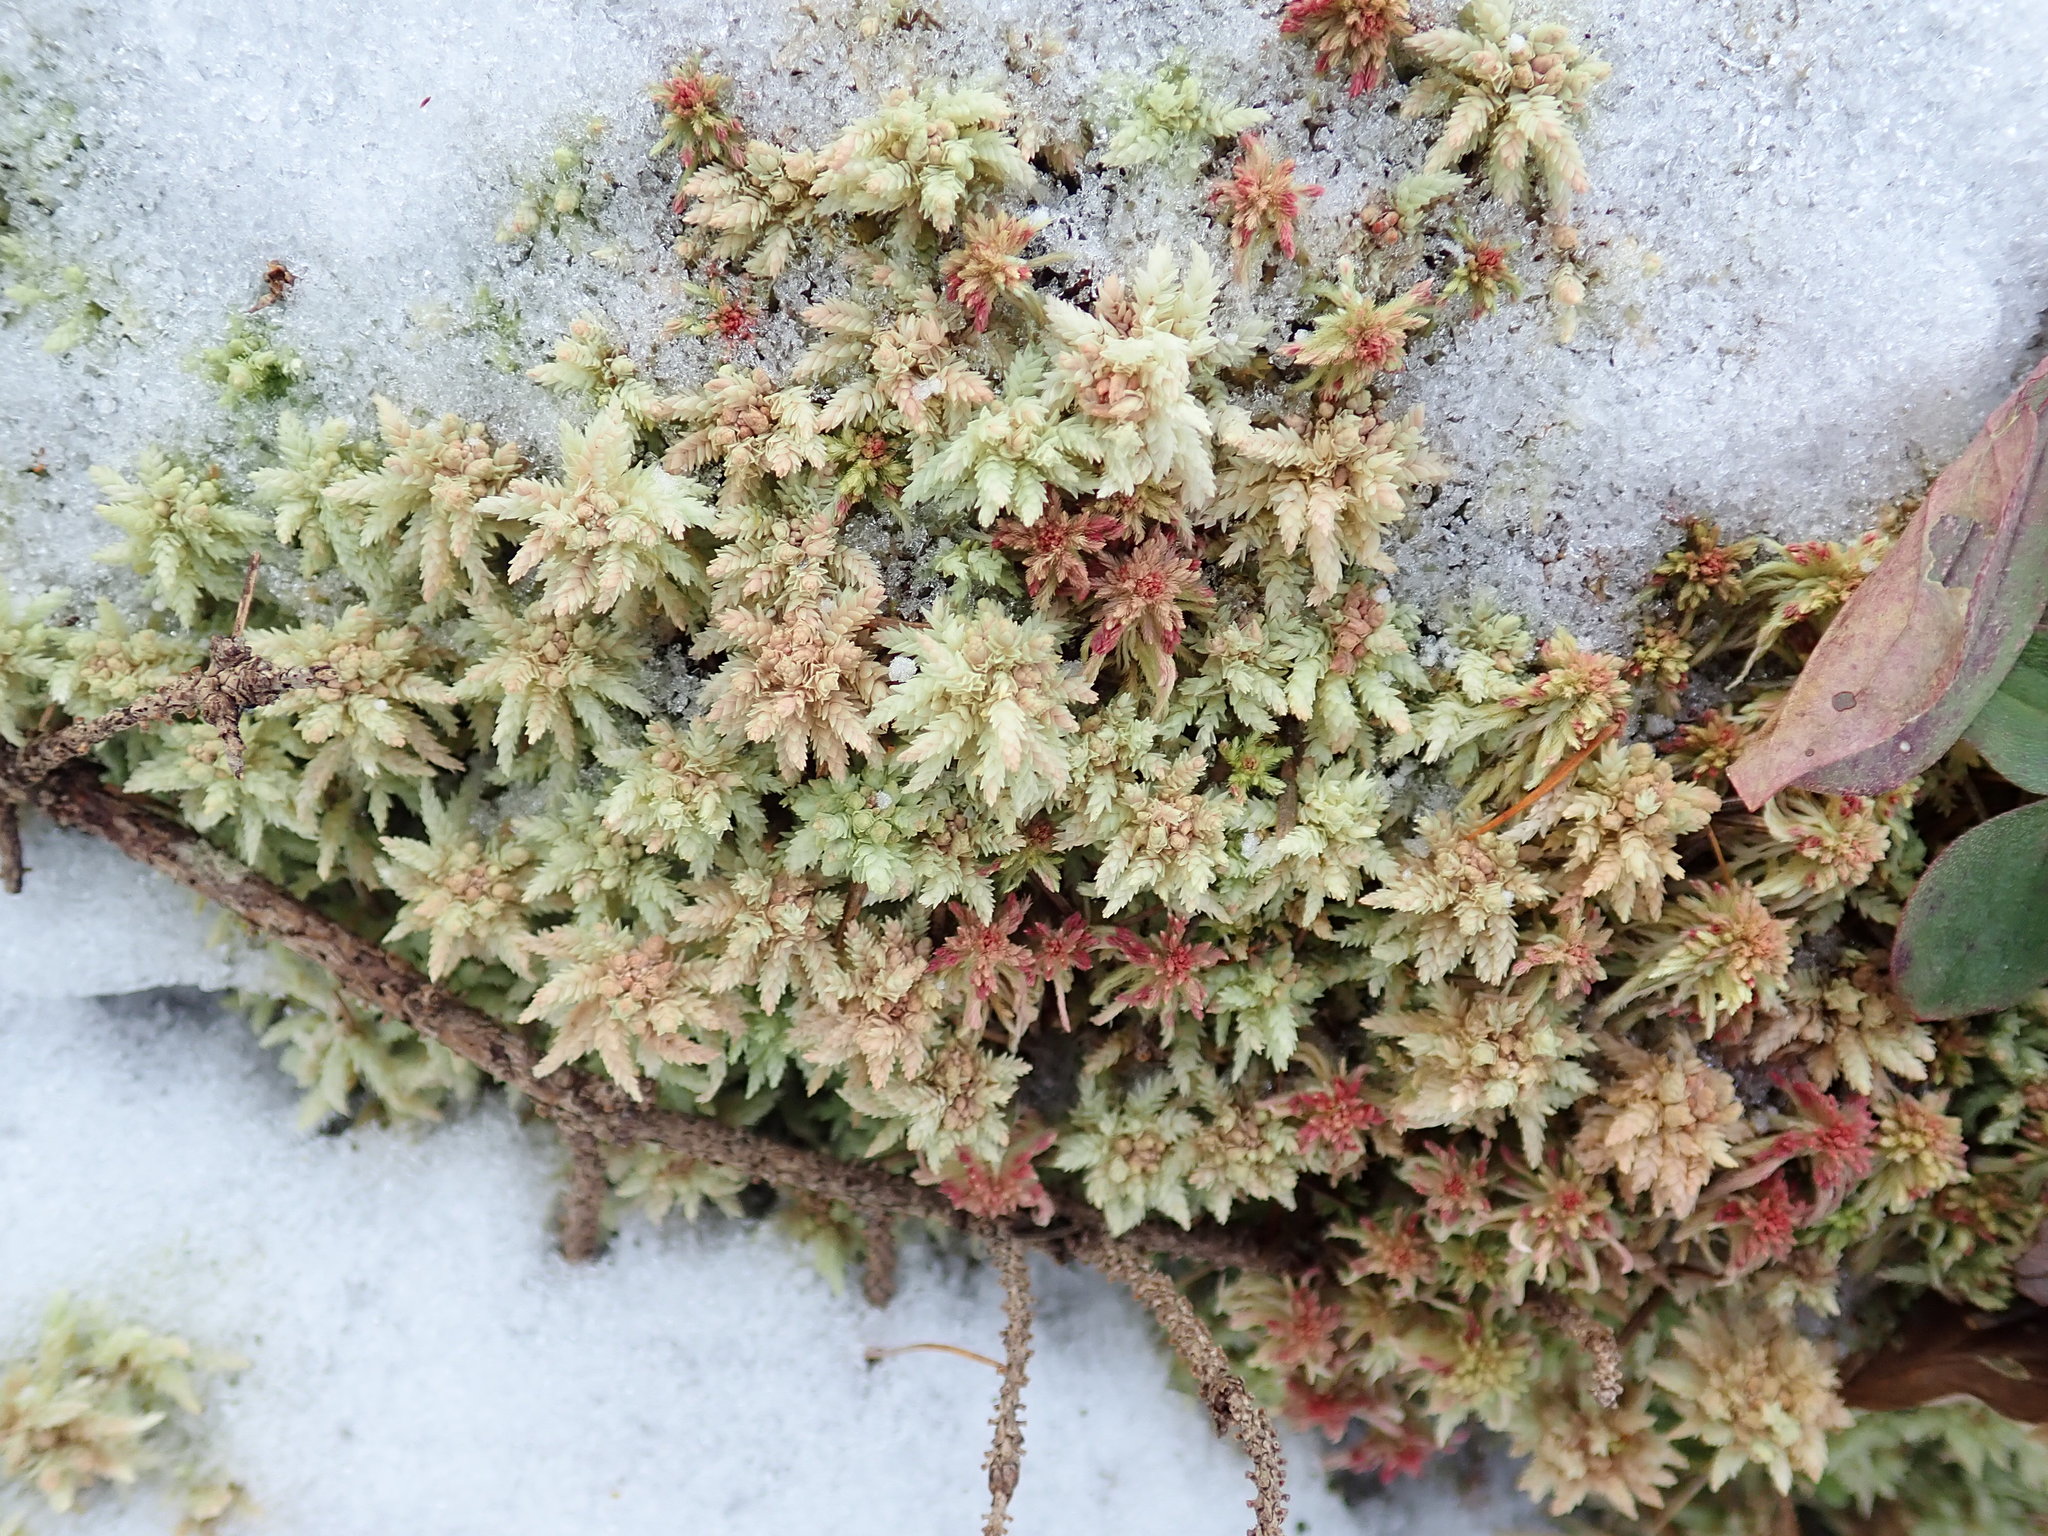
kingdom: Plantae
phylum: Bryophyta
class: Sphagnopsida
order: Sphagnales
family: Sphagnaceae
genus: Sphagnum
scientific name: Sphagnum
